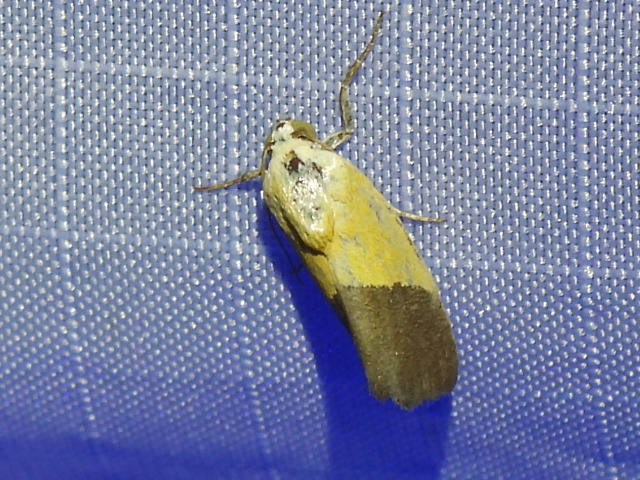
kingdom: Animalia
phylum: Arthropoda
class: Insecta
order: Lepidoptera
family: Noctuidae
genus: Acontia
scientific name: Acontia semiflava
